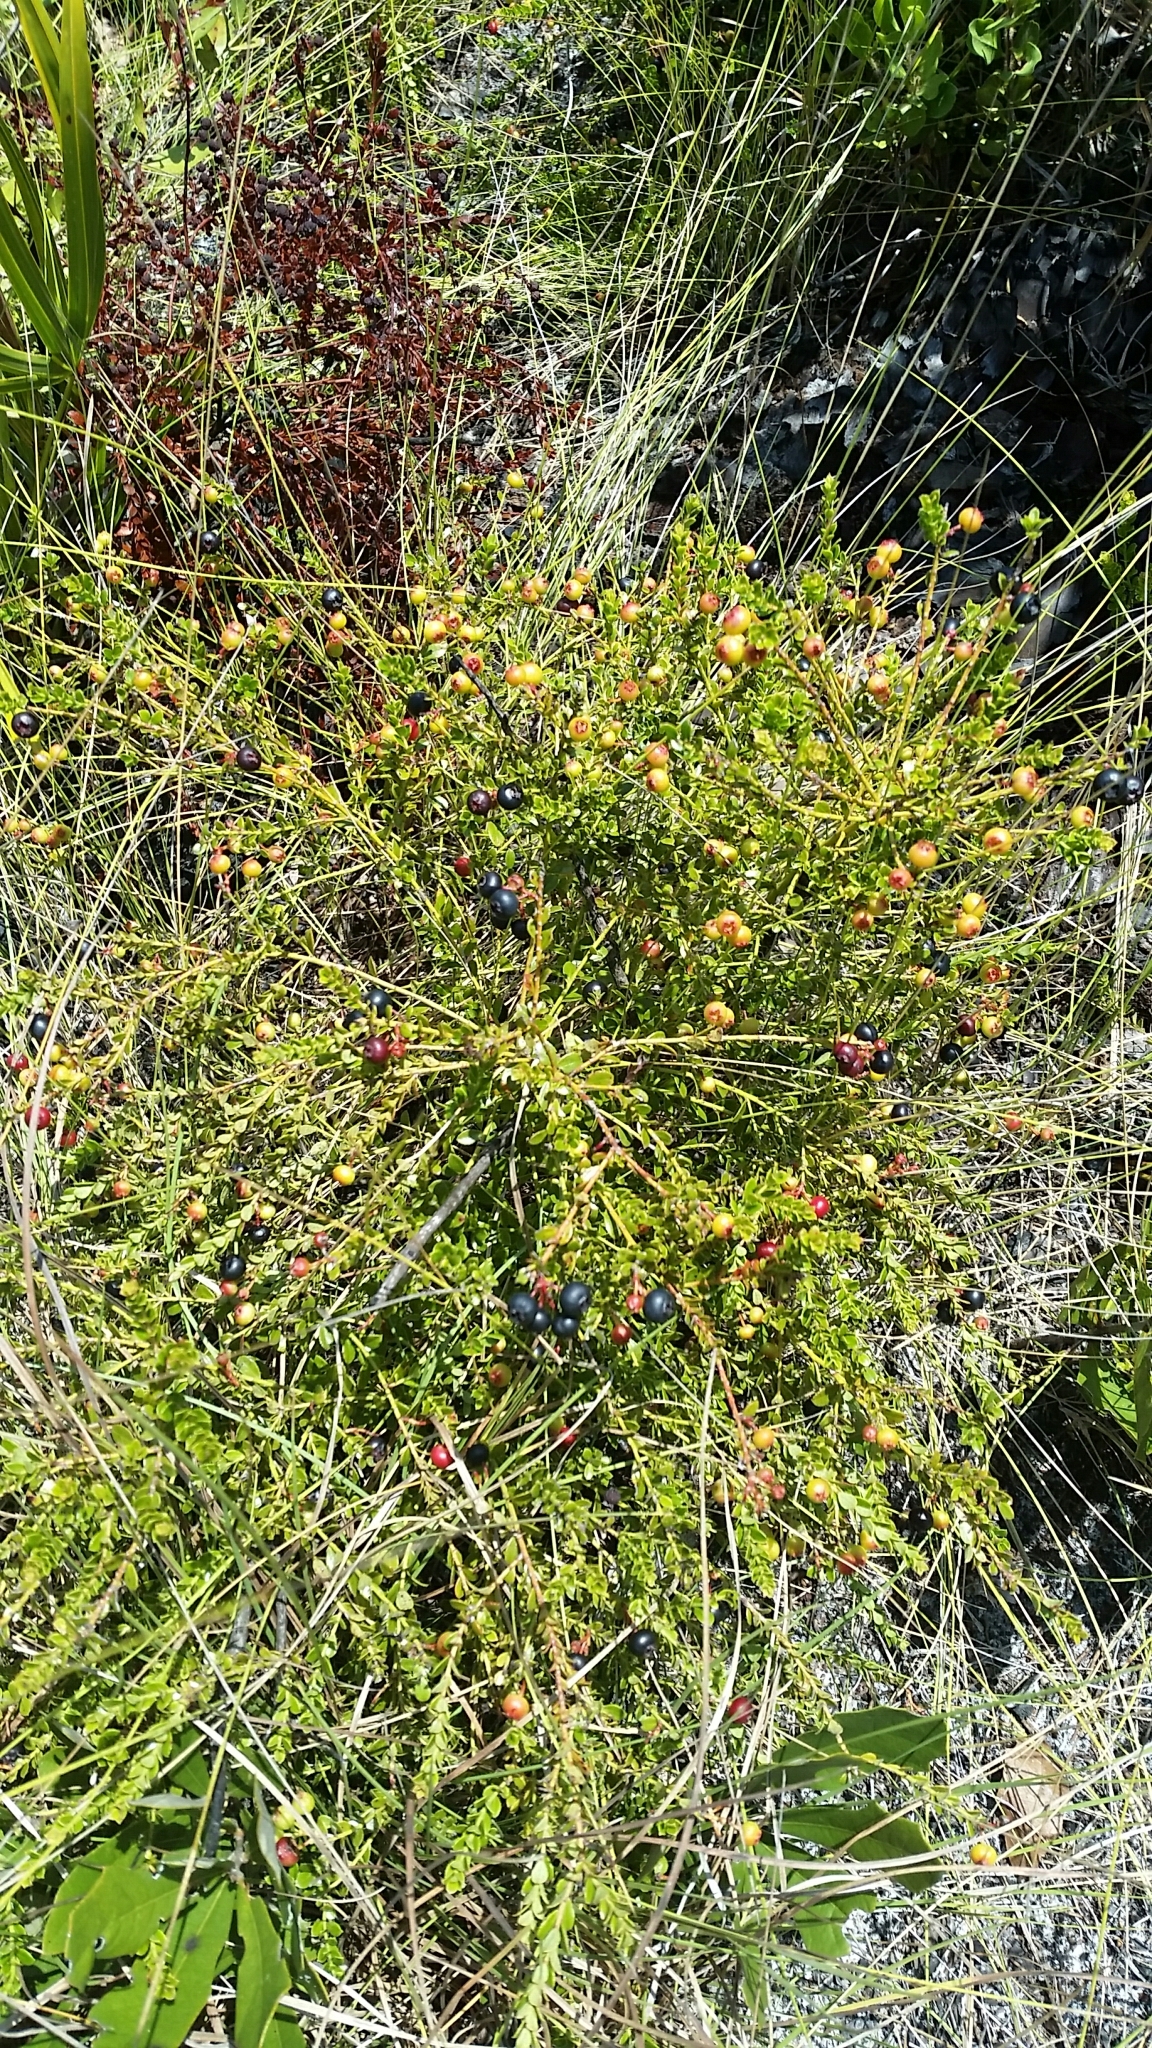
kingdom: Plantae
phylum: Tracheophyta
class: Magnoliopsida
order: Ericales
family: Ericaceae
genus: Vaccinium
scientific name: Vaccinium myrsinites
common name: Evergreen blueberry
